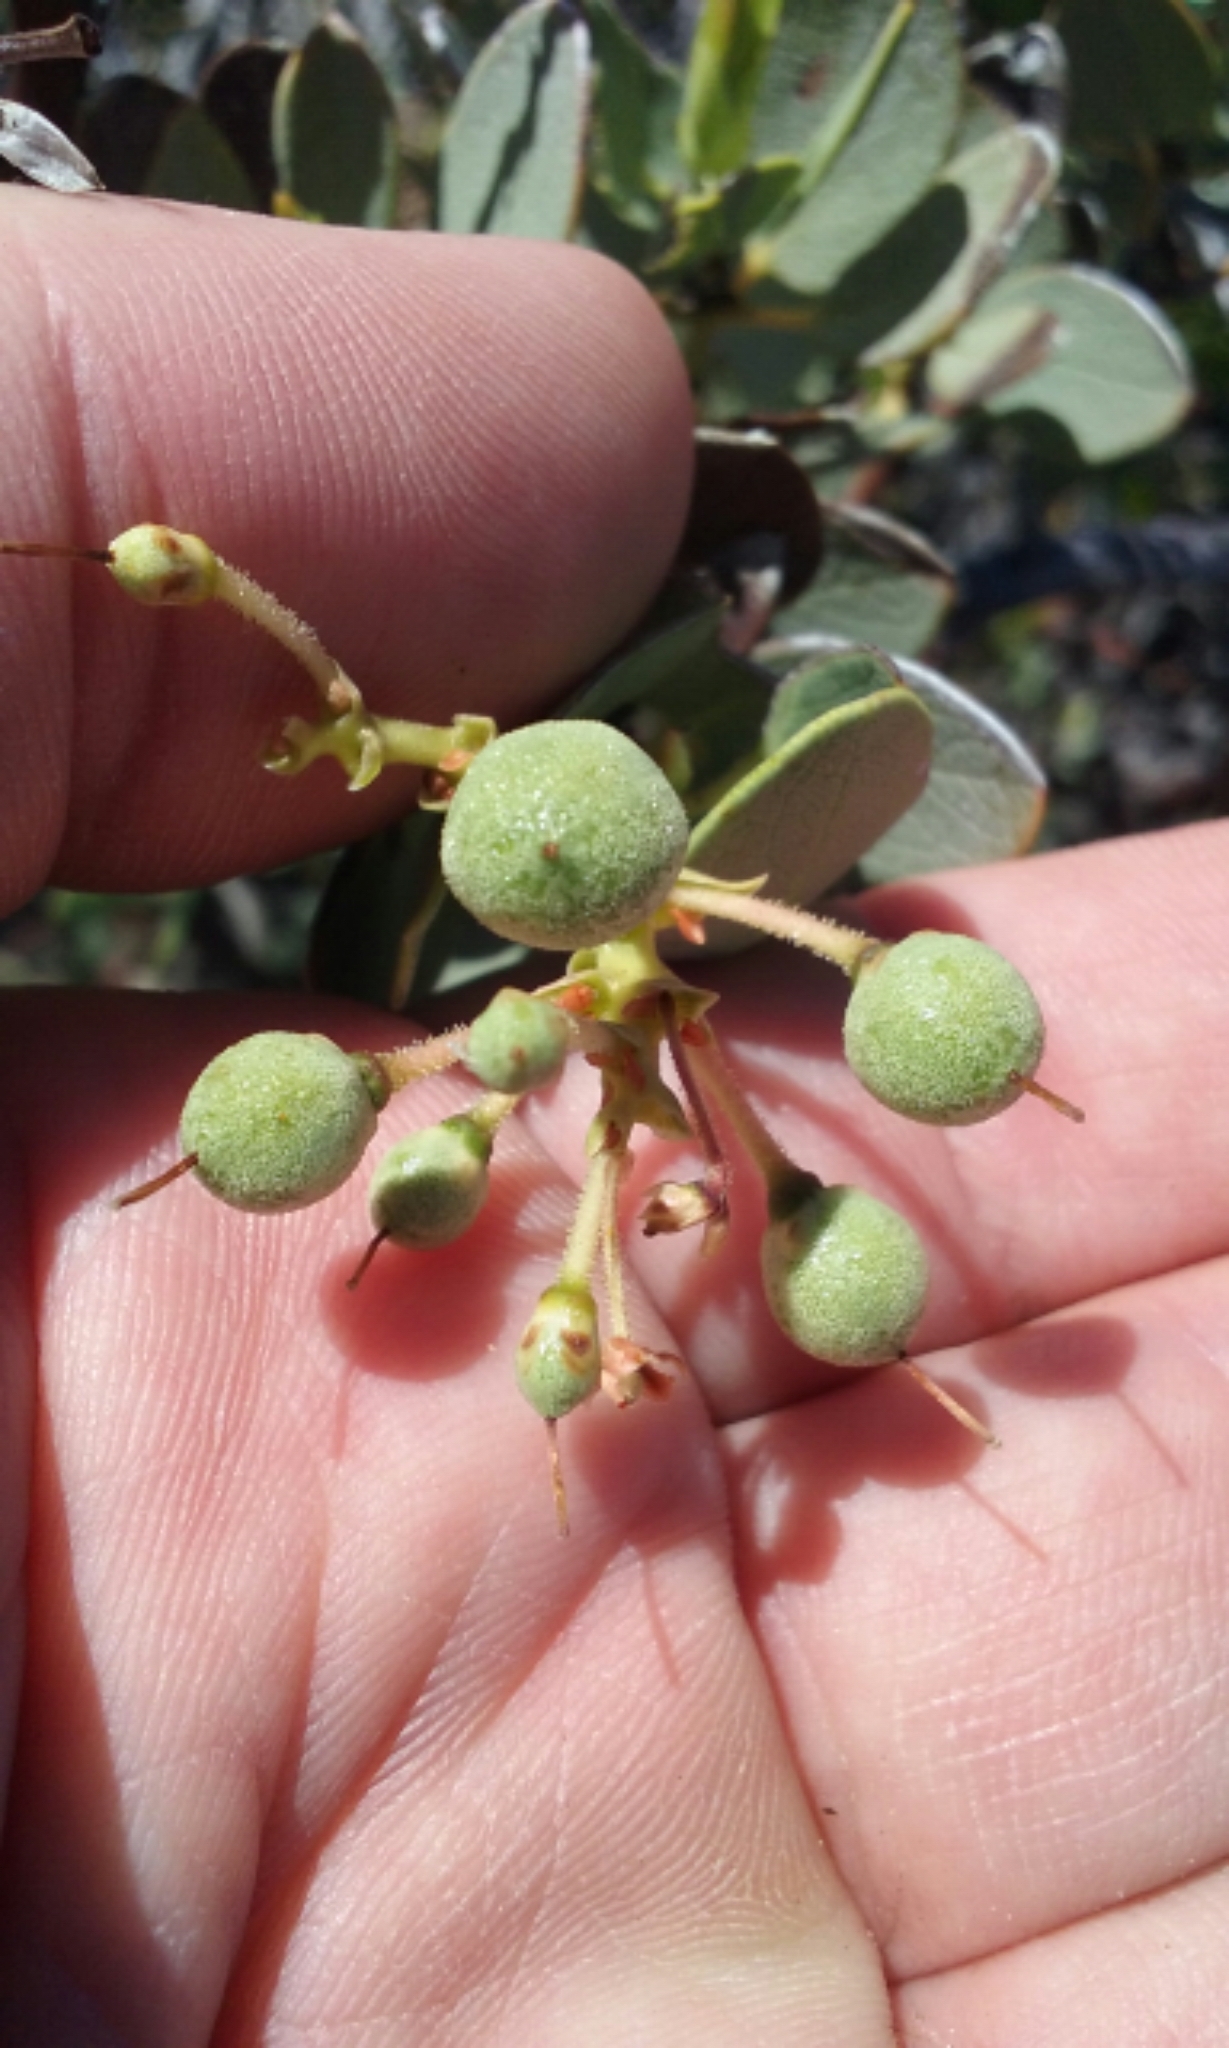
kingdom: Plantae
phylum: Tracheophyta
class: Magnoliopsida
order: Ericales
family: Ericaceae
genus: Arctostaphylos
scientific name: Arctostaphylos glauca
